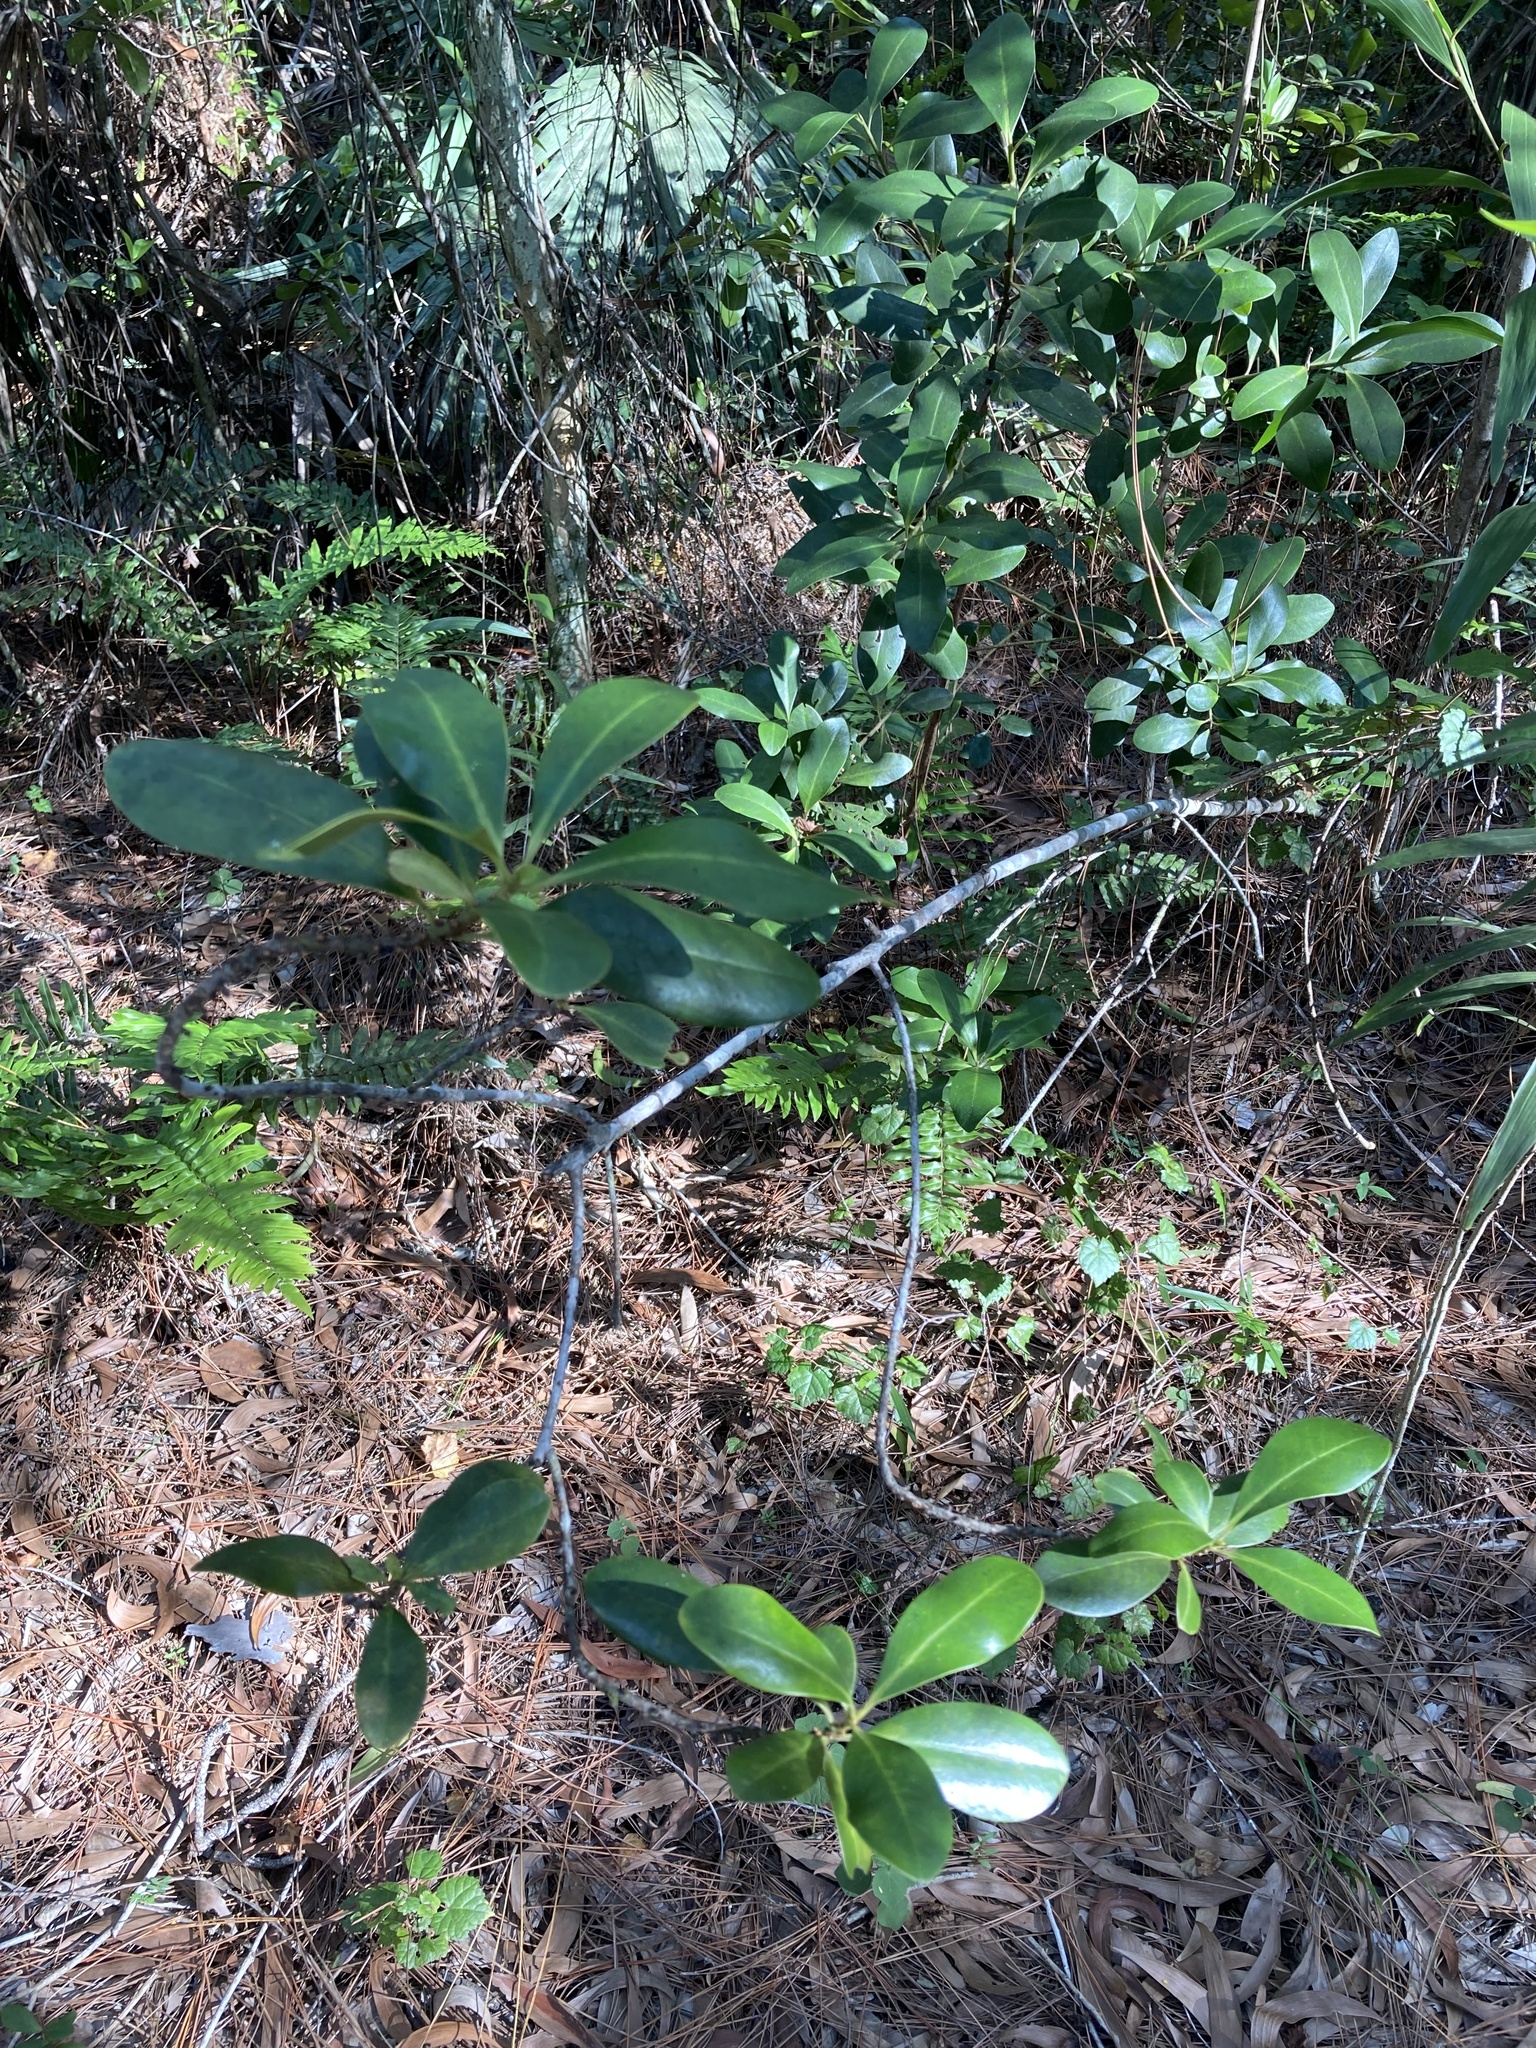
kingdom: Plantae
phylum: Tracheophyta
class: Magnoliopsida
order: Ericales
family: Primulaceae
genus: Myrsine
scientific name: Myrsine floridana
